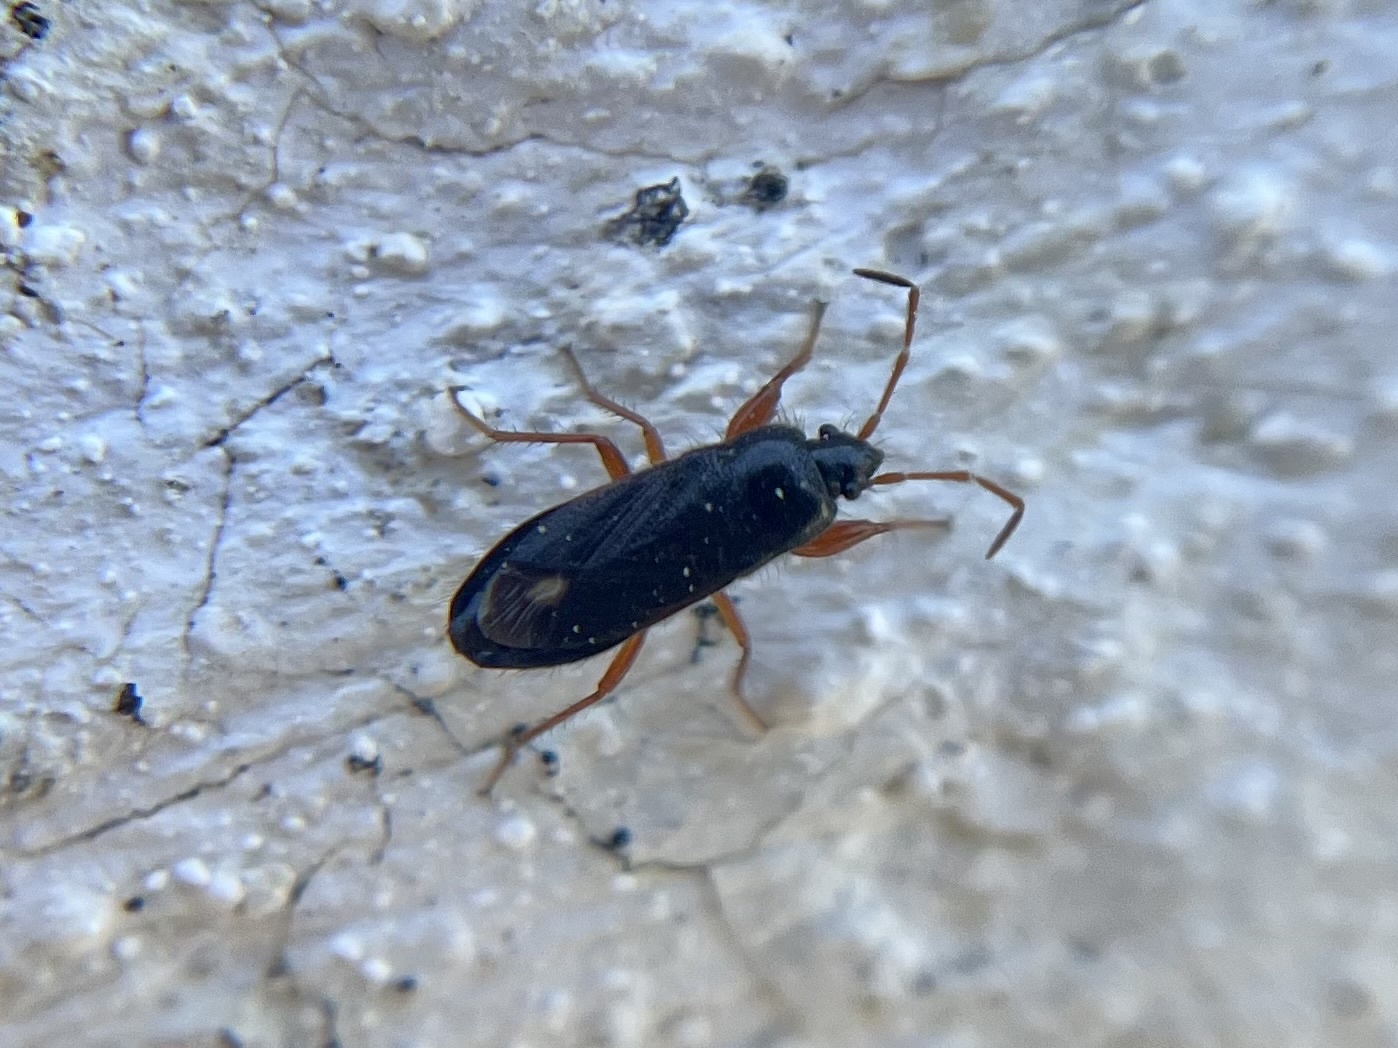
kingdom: Animalia
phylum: Arthropoda
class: Insecta
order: Hemiptera
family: Rhyparochromidae
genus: Megalonotus
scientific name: Megalonotus colon
